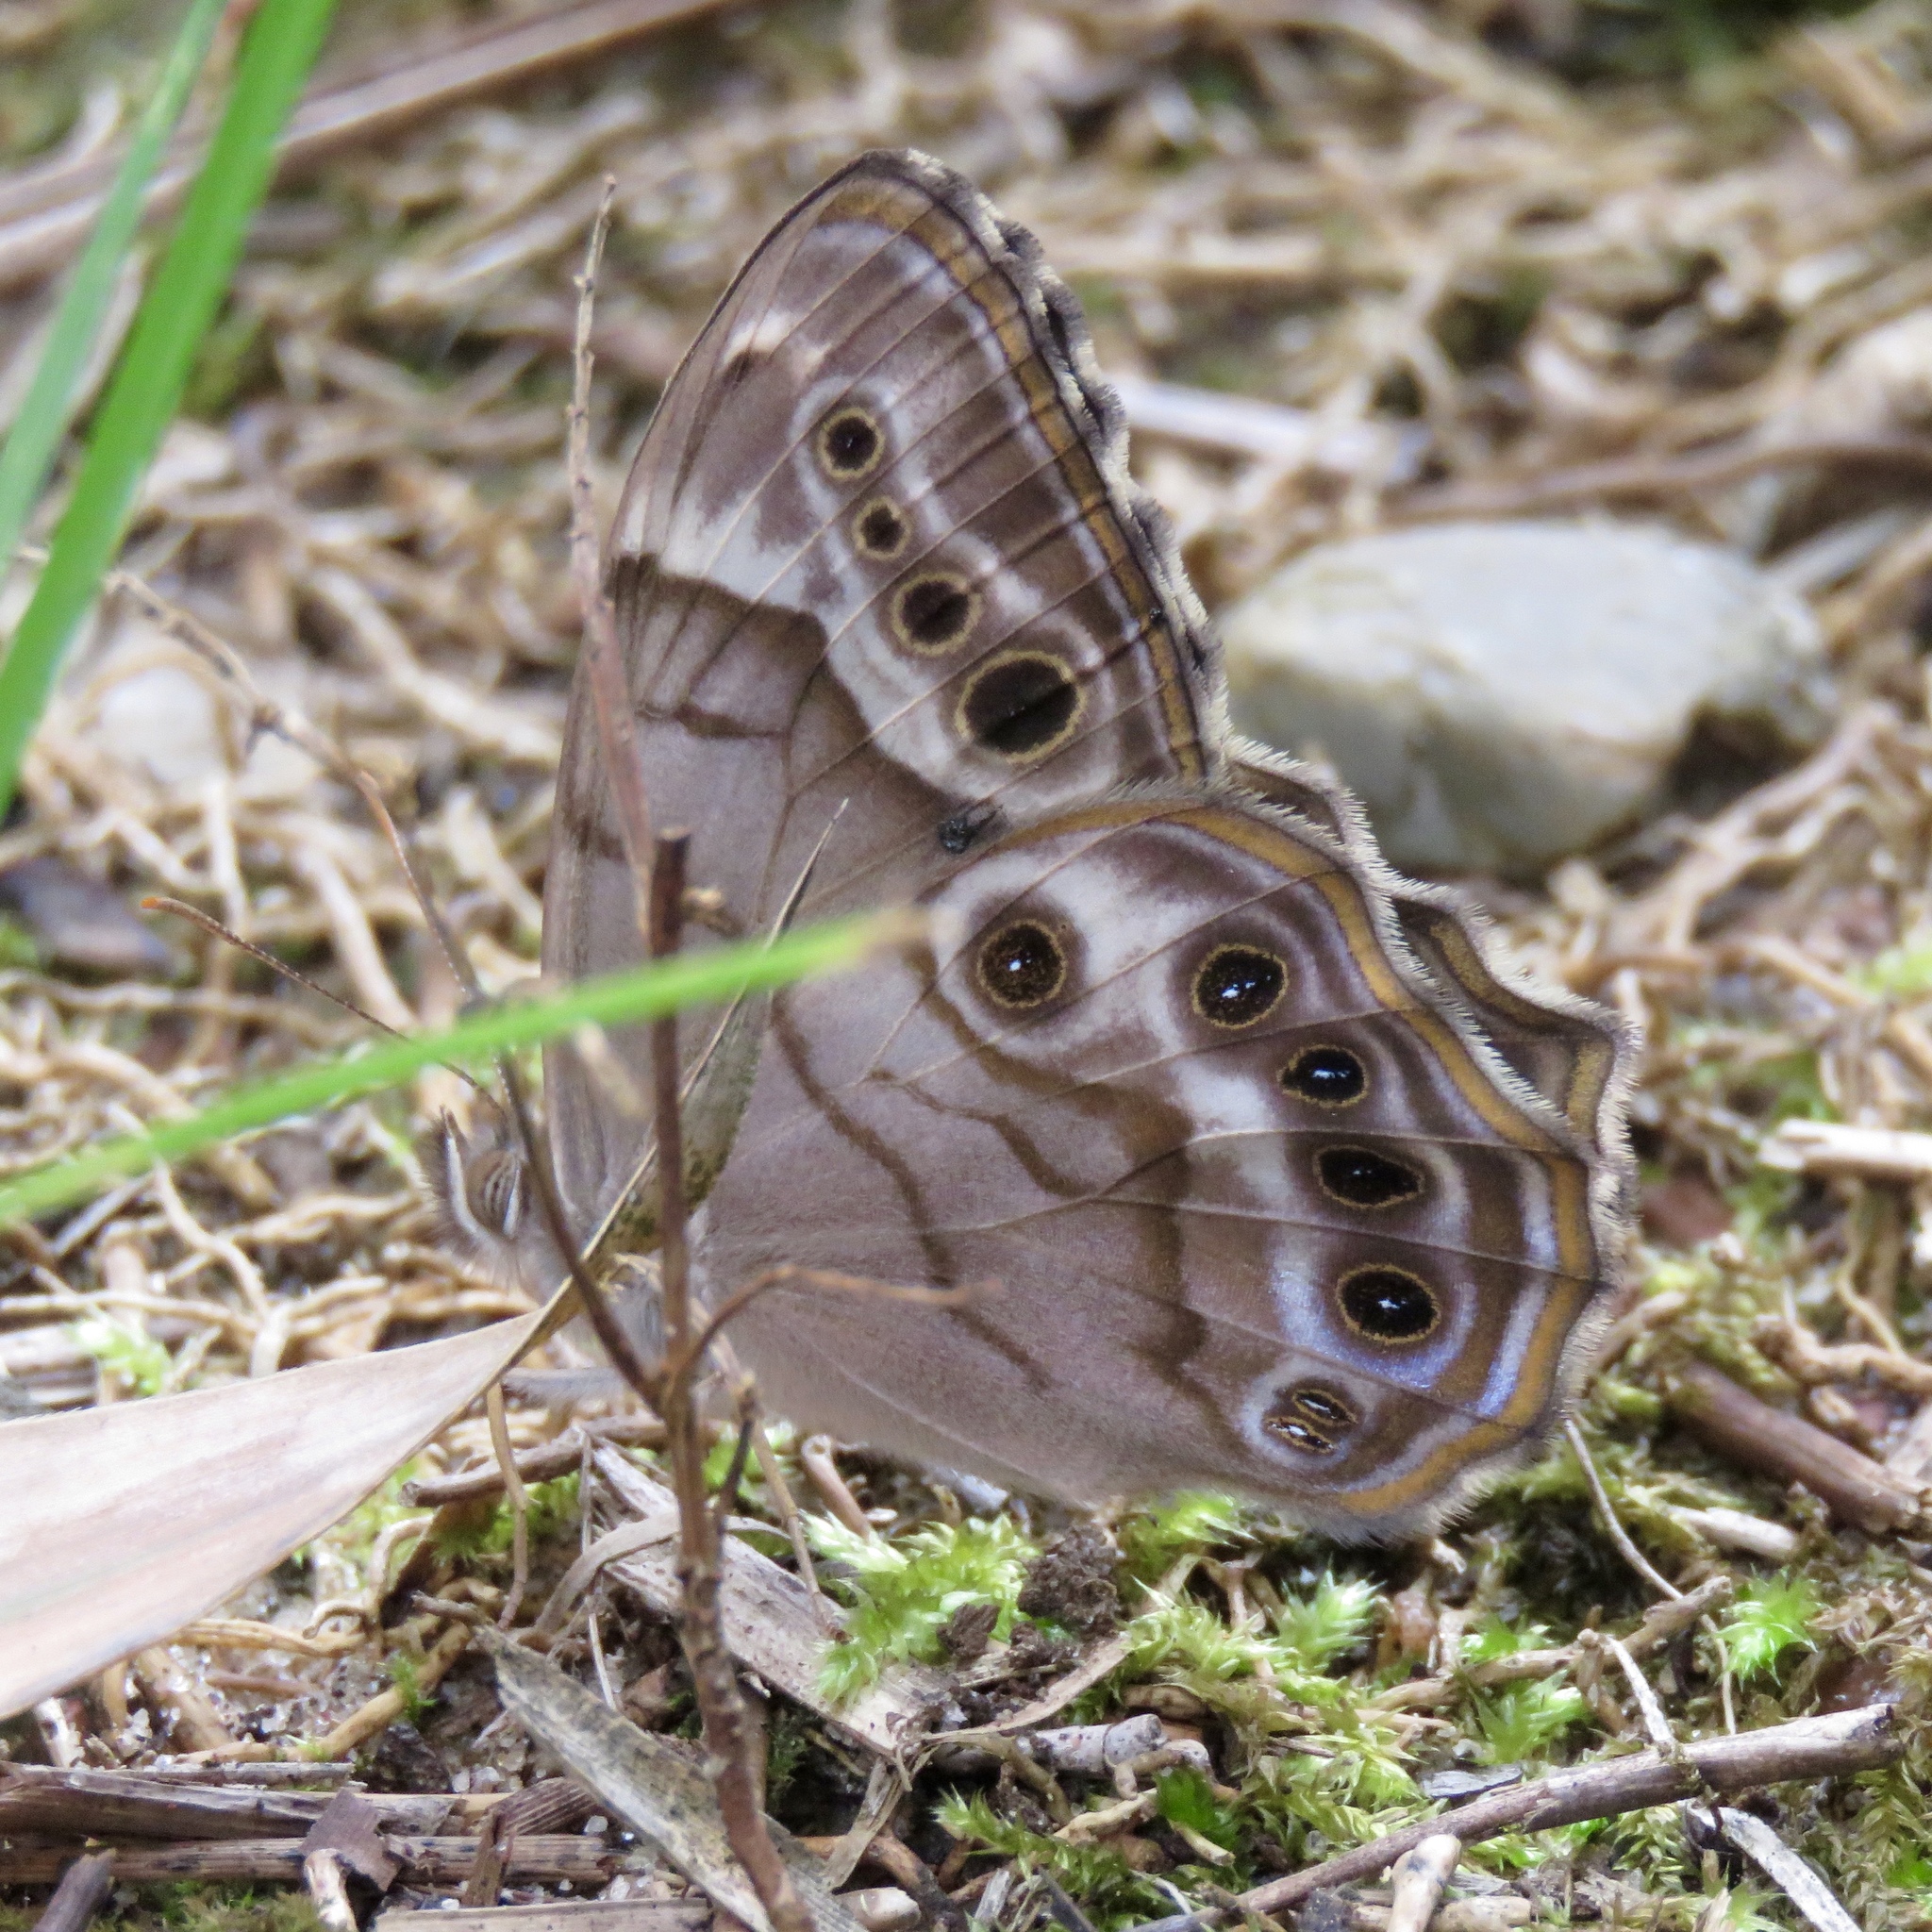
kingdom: Animalia
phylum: Arthropoda
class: Insecta
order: Lepidoptera
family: Nymphalidae
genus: Enodia
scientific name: Enodia portlandia
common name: Southern pearly-eye
